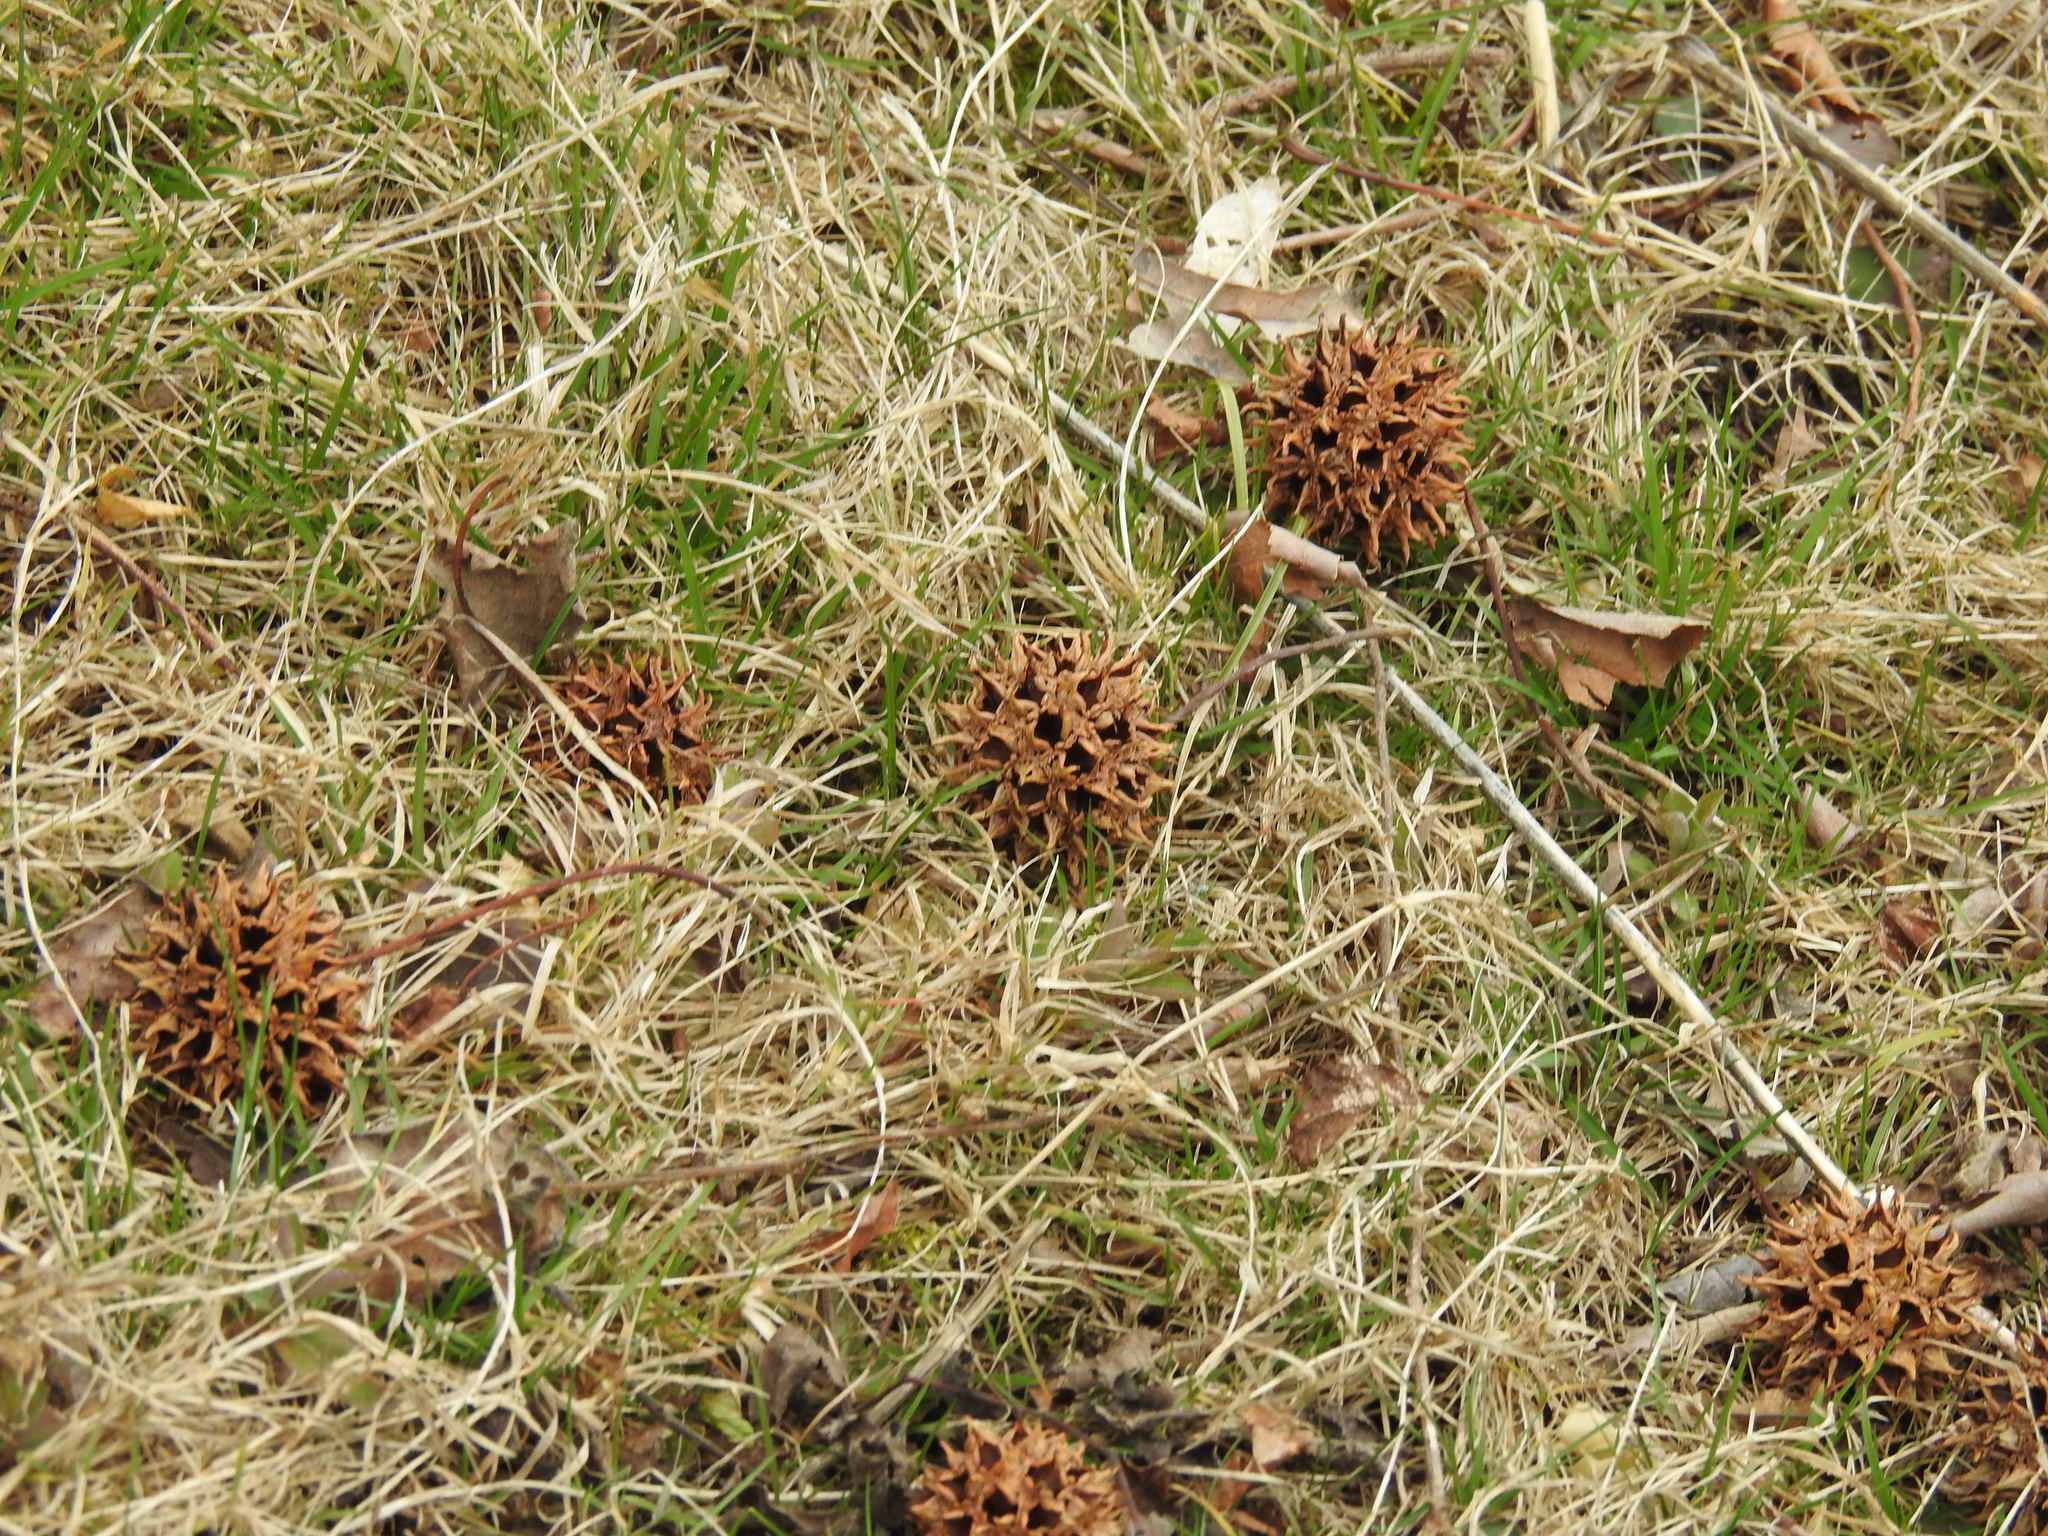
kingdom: Plantae
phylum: Tracheophyta
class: Magnoliopsida
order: Saxifragales
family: Altingiaceae
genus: Liquidambar
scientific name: Liquidambar styraciflua
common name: Sweet gum
